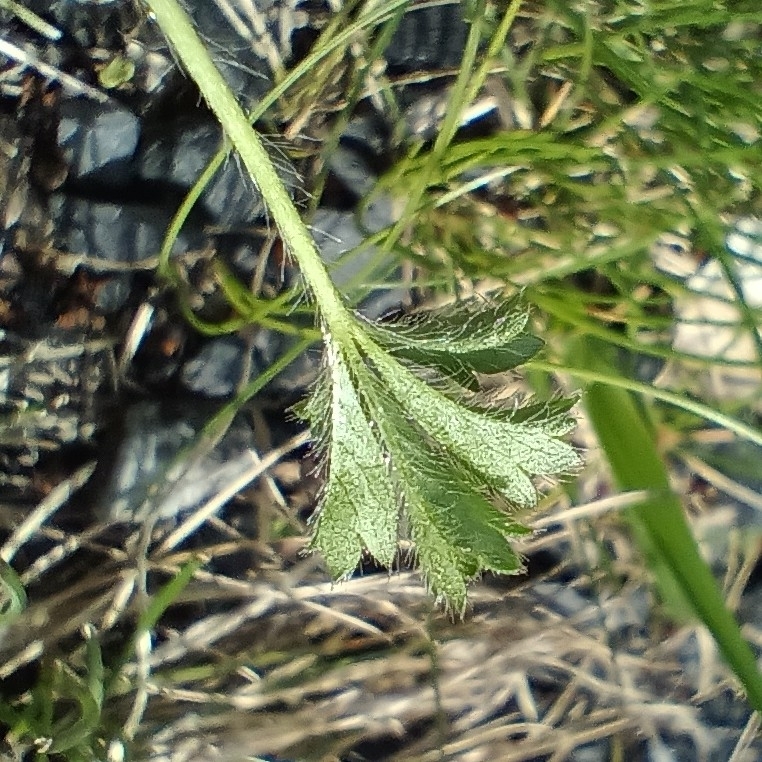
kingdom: Plantae
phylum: Tracheophyta
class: Magnoliopsida
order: Rosales
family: Rosaceae
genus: Potentilla
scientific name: Potentilla verna
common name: Spring cinquefoil
